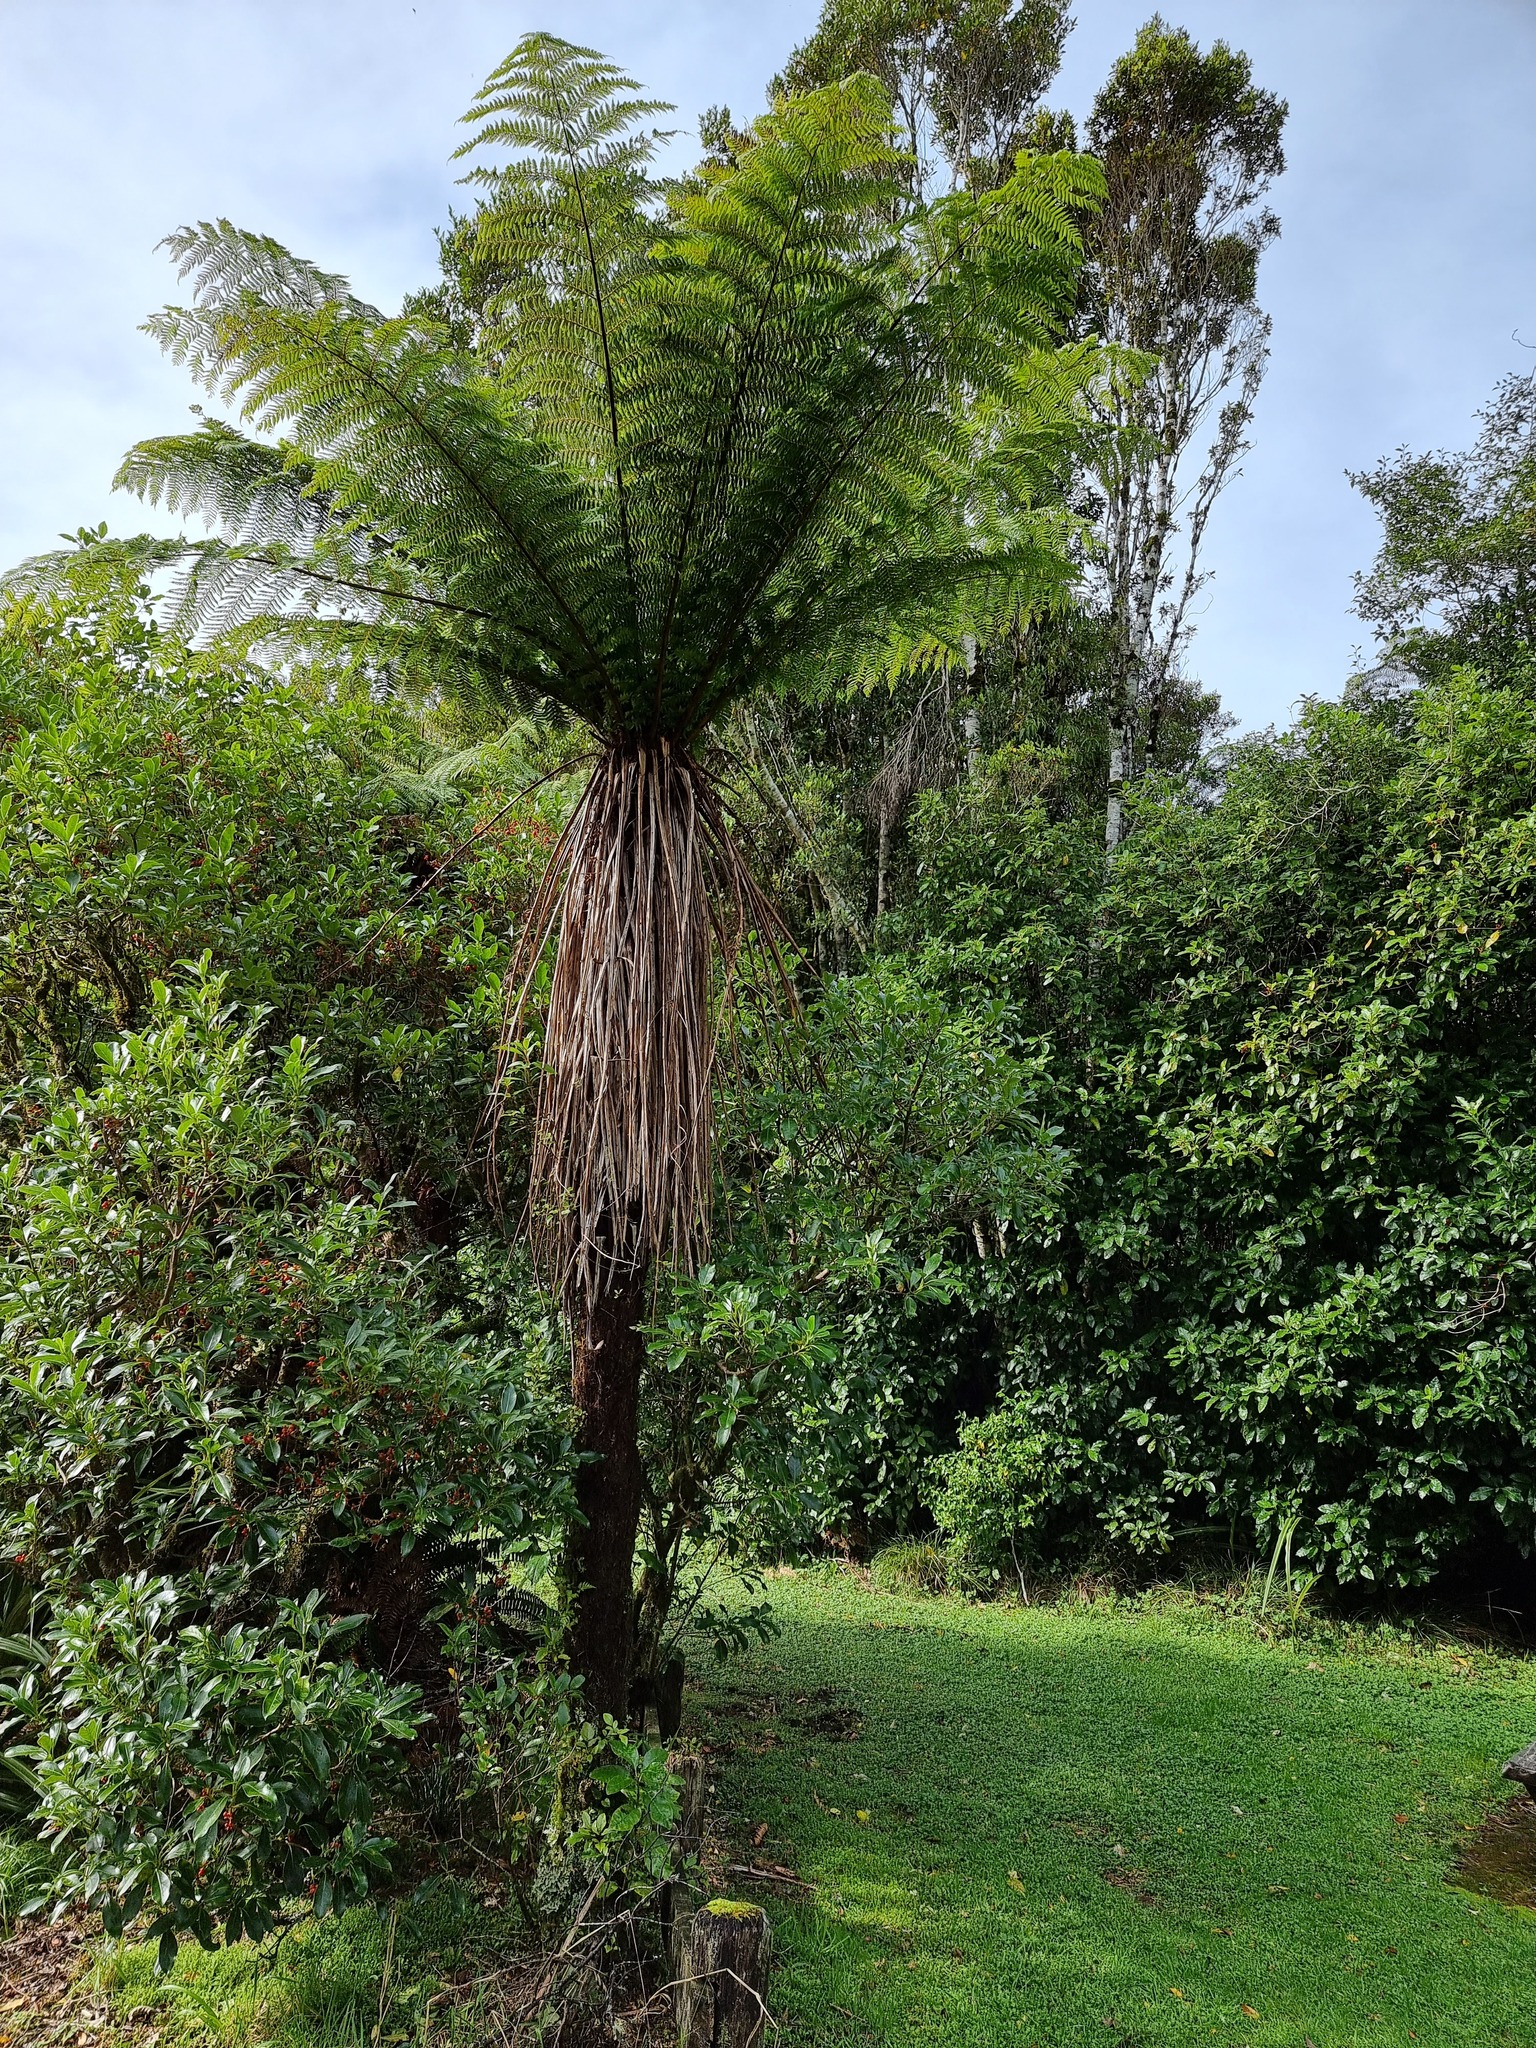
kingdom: Plantae
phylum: Tracheophyta
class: Polypodiopsida
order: Cyatheales
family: Cyatheaceae
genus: Alsophila
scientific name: Alsophila smithii
